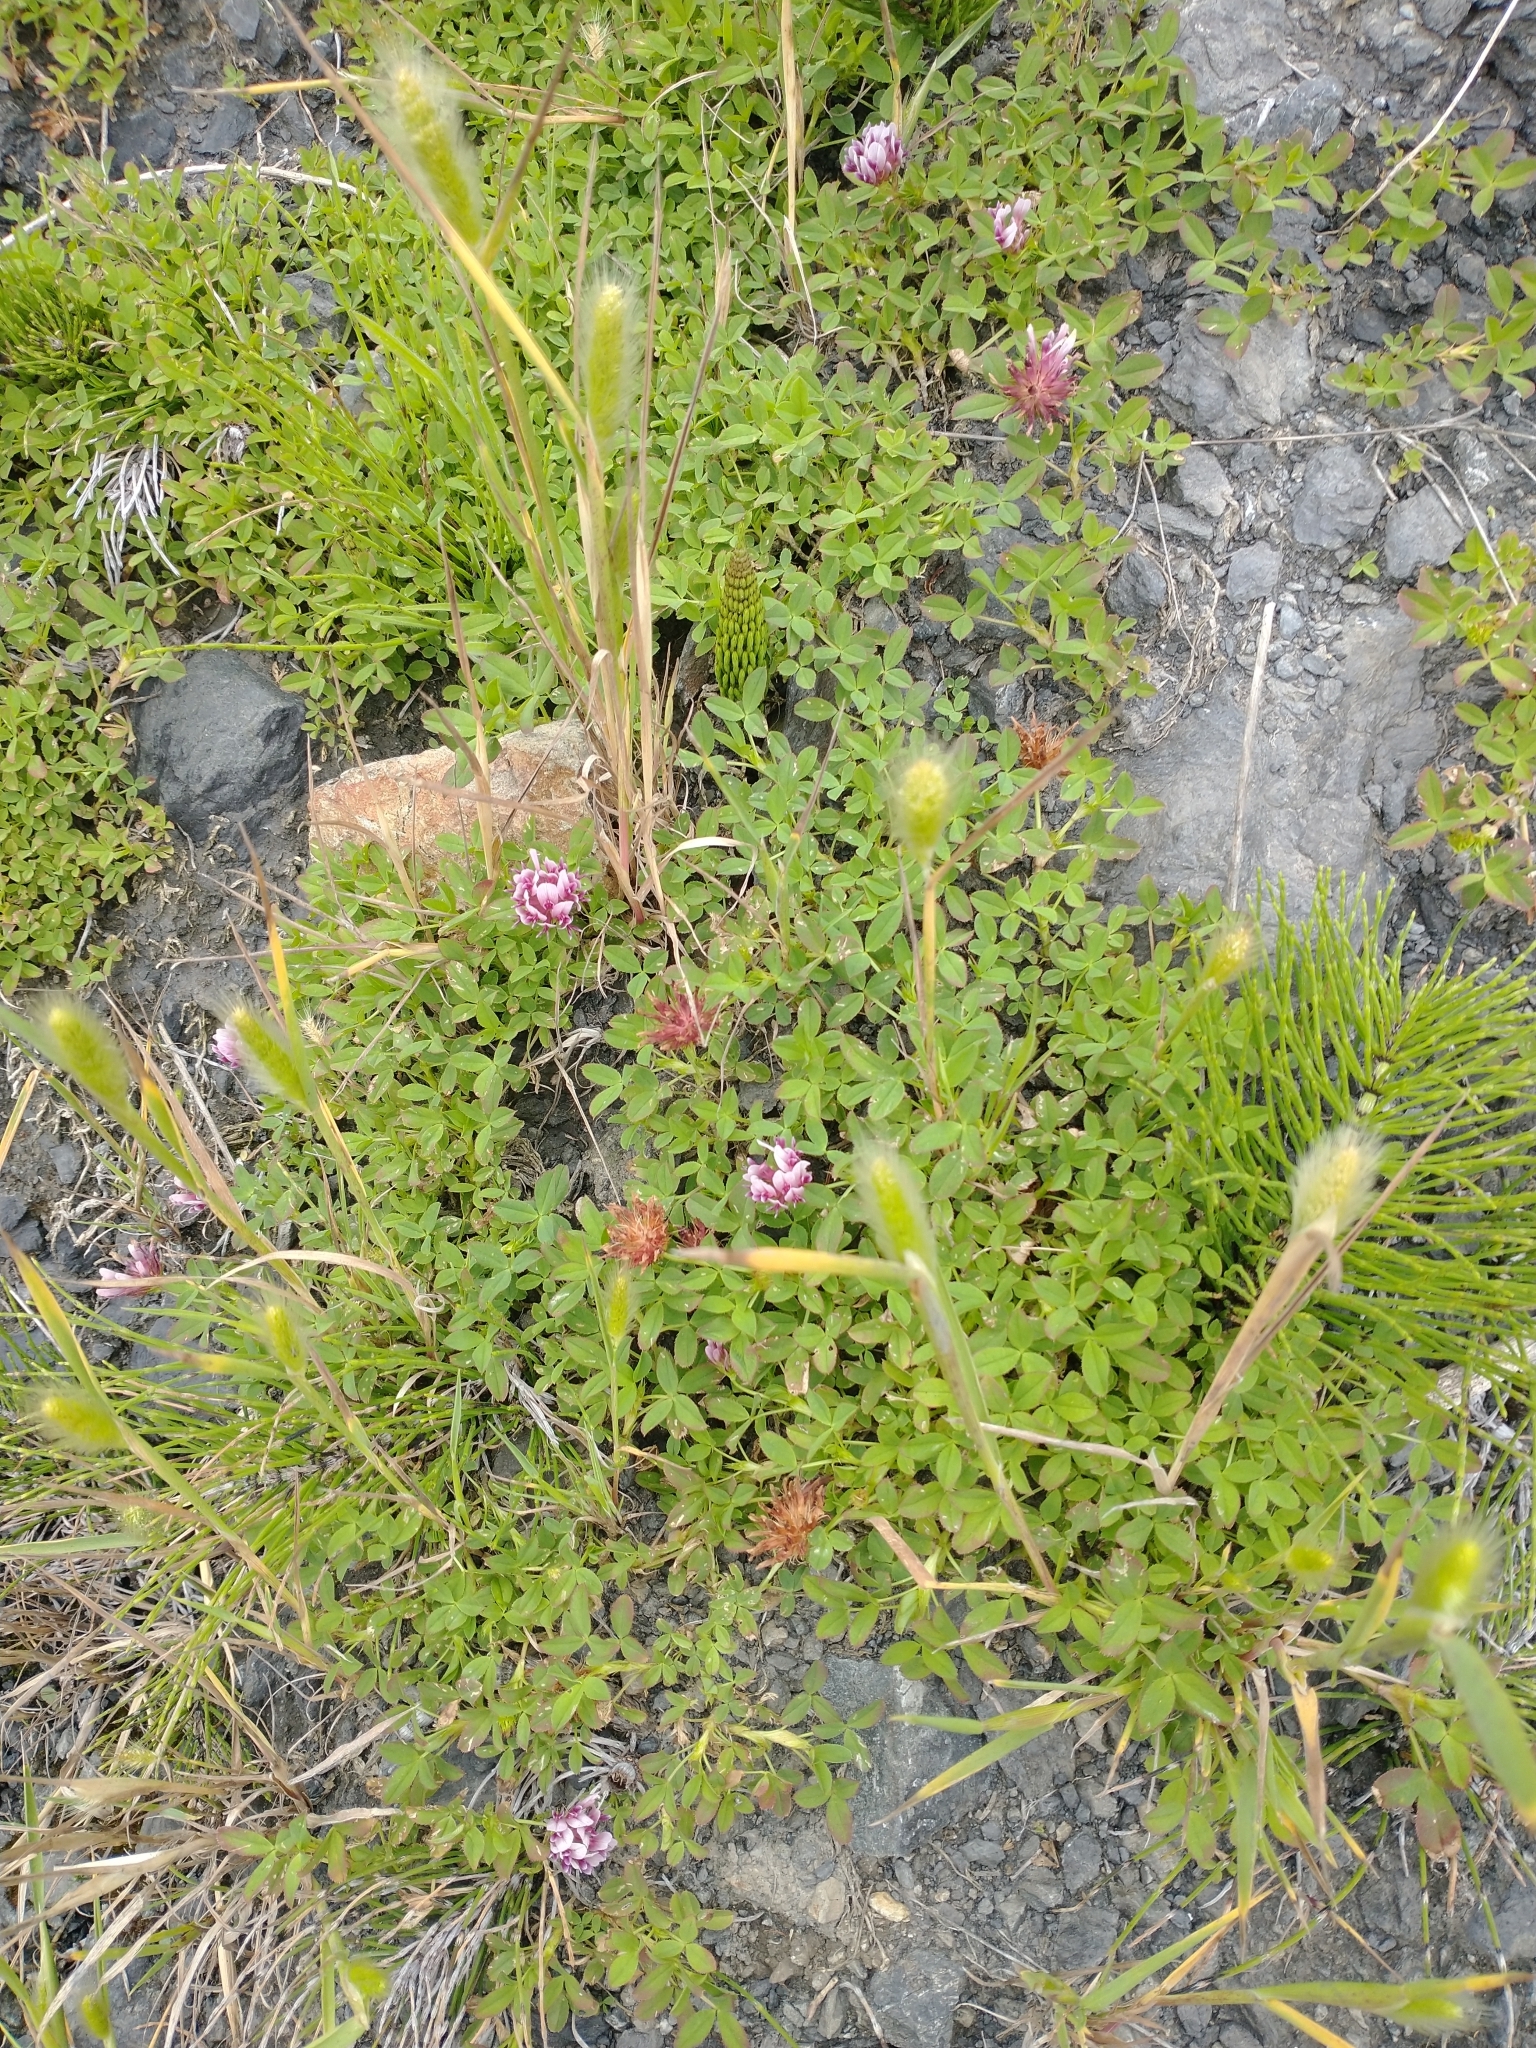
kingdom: Plantae
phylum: Tracheophyta
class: Magnoliopsida
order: Fabales
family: Fabaceae
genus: Trifolium
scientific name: Trifolium wormskioldii
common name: Springbank clover
